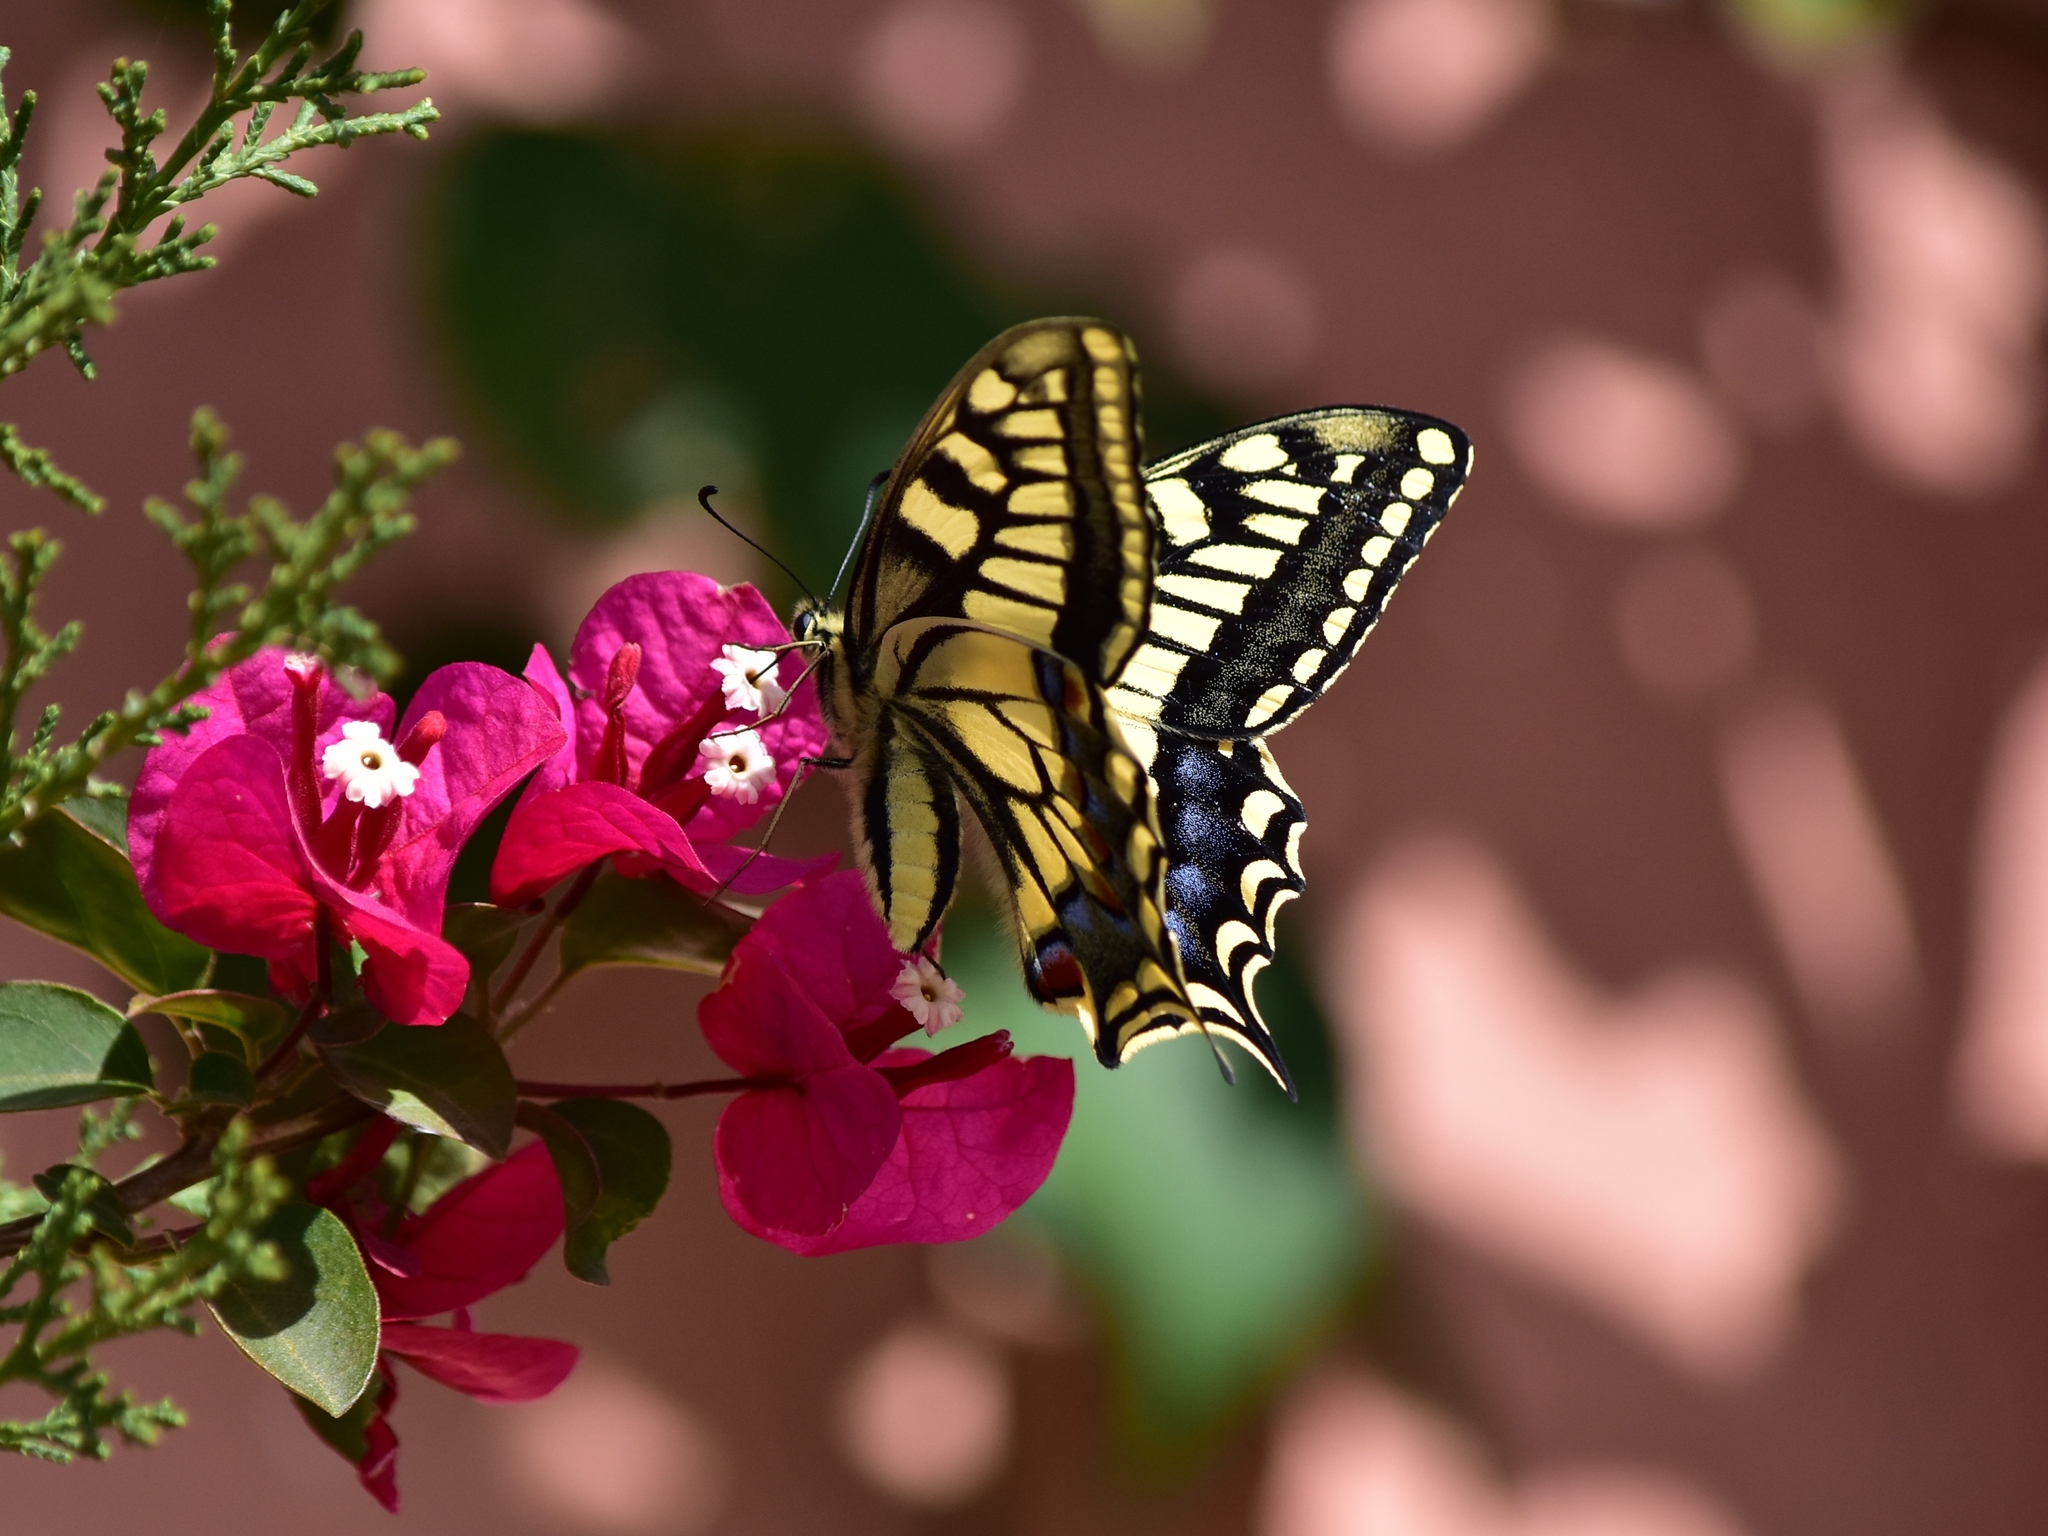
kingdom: Animalia
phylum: Arthropoda
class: Insecta
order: Lepidoptera
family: Papilionidae
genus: Papilio
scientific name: Papilio machaon
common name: Swallowtail
